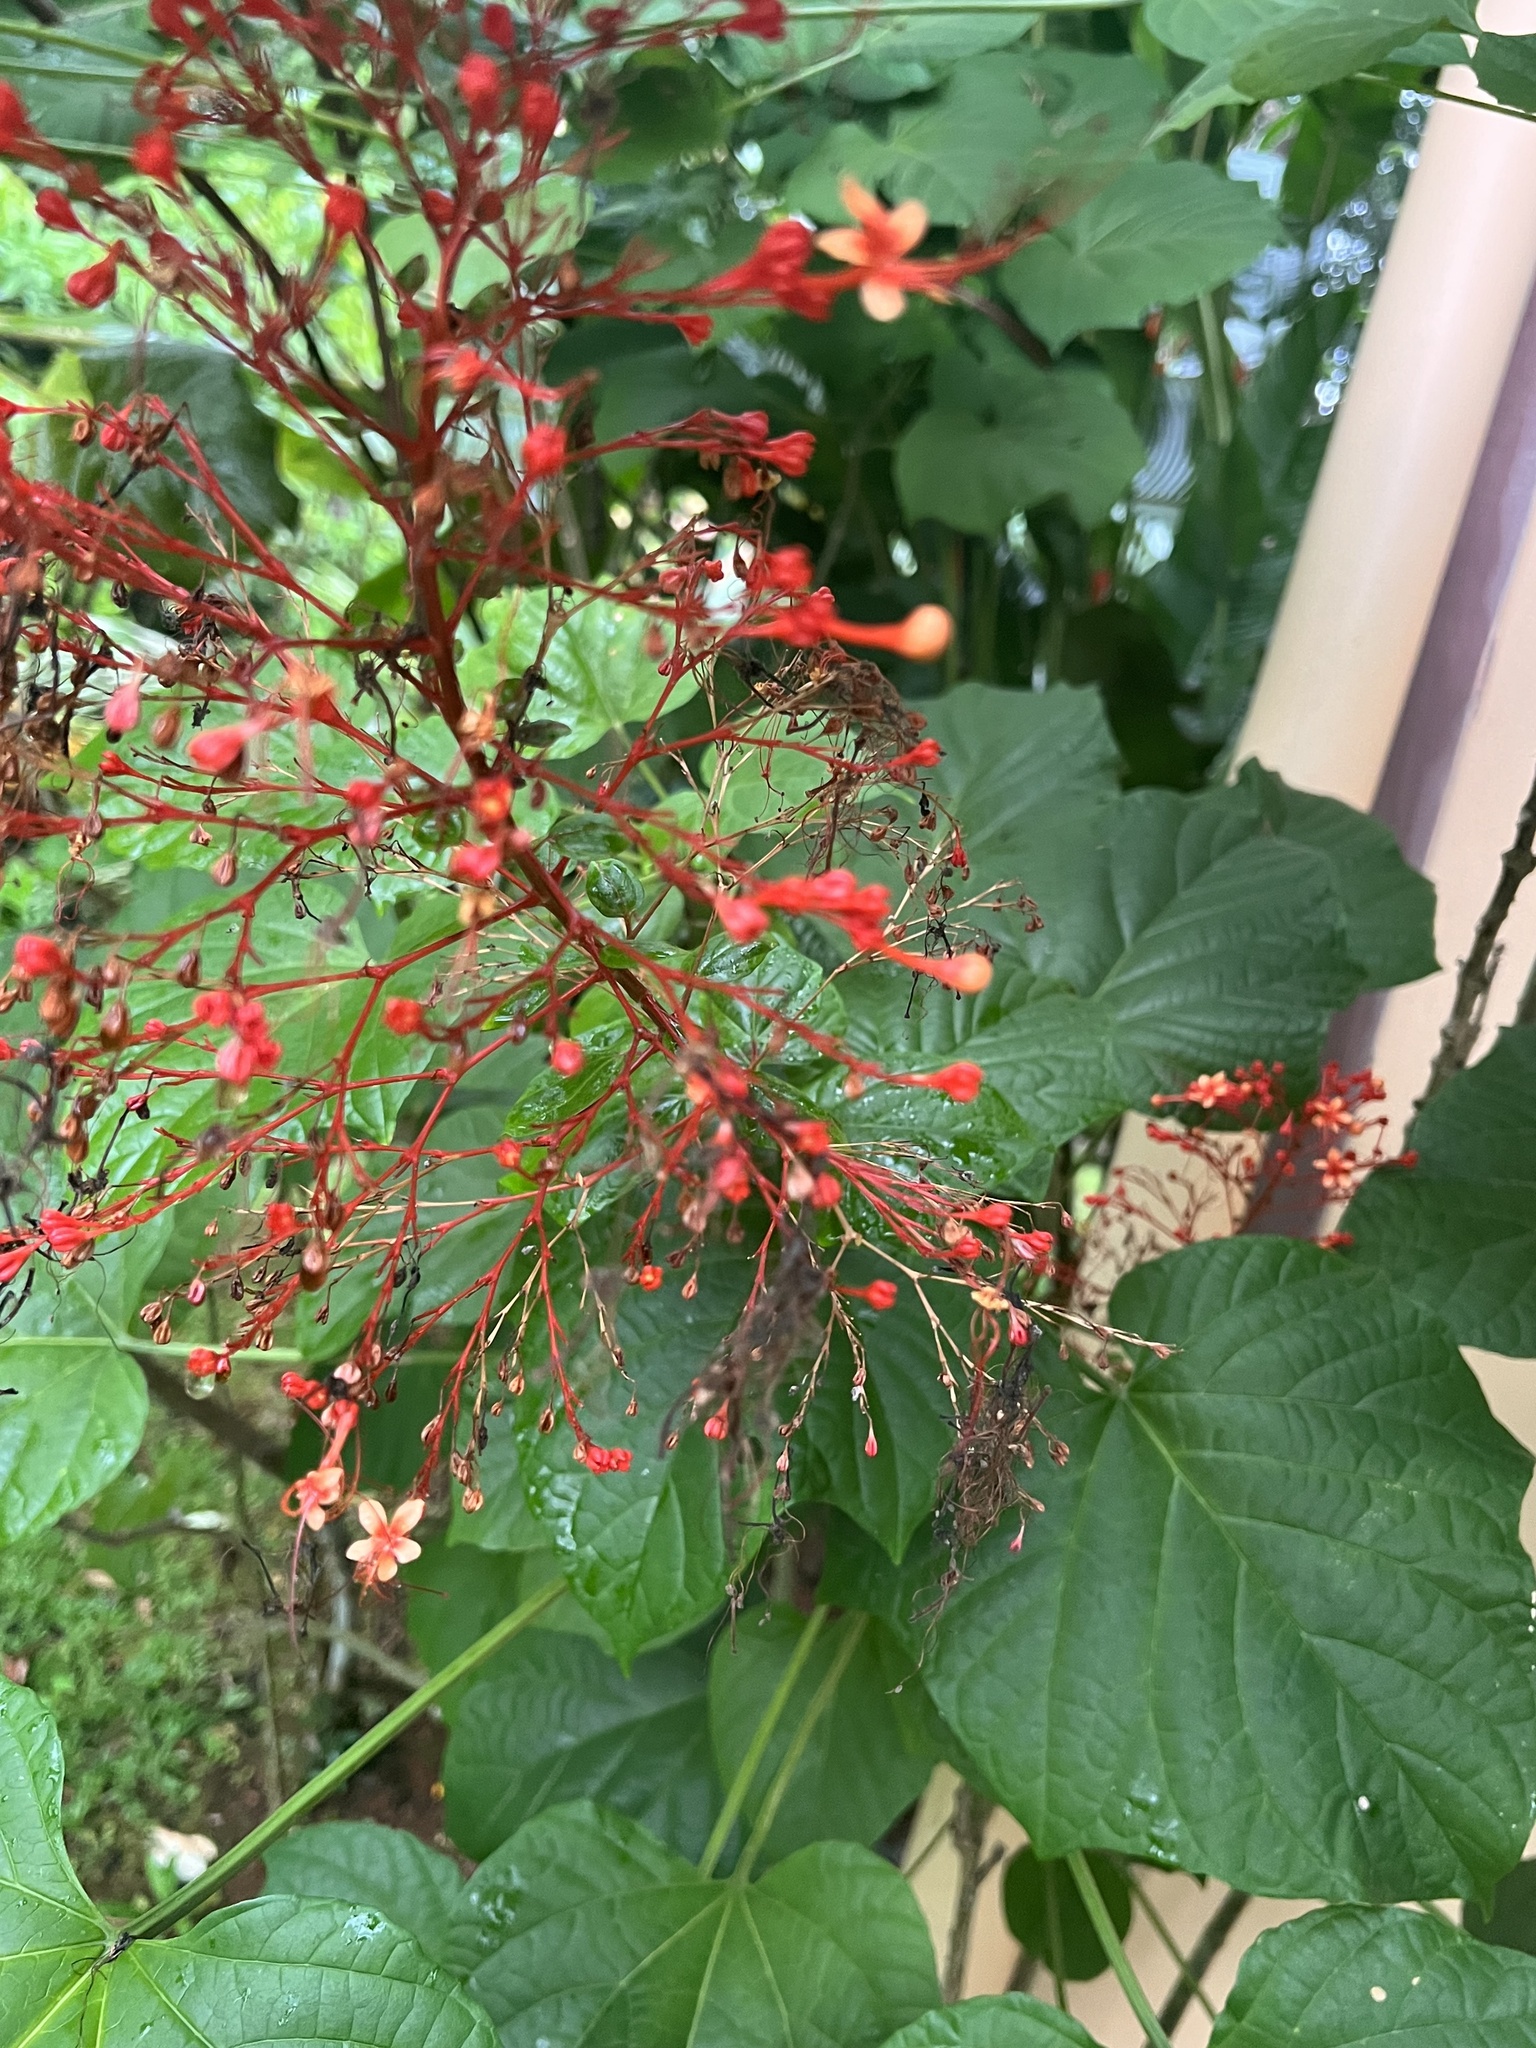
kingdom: Plantae
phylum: Tracheophyta
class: Magnoliopsida
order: Lamiales
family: Lamiaceae
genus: Clerodendrum
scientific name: Clerodendrum paniculatum
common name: Pagoda-flower
